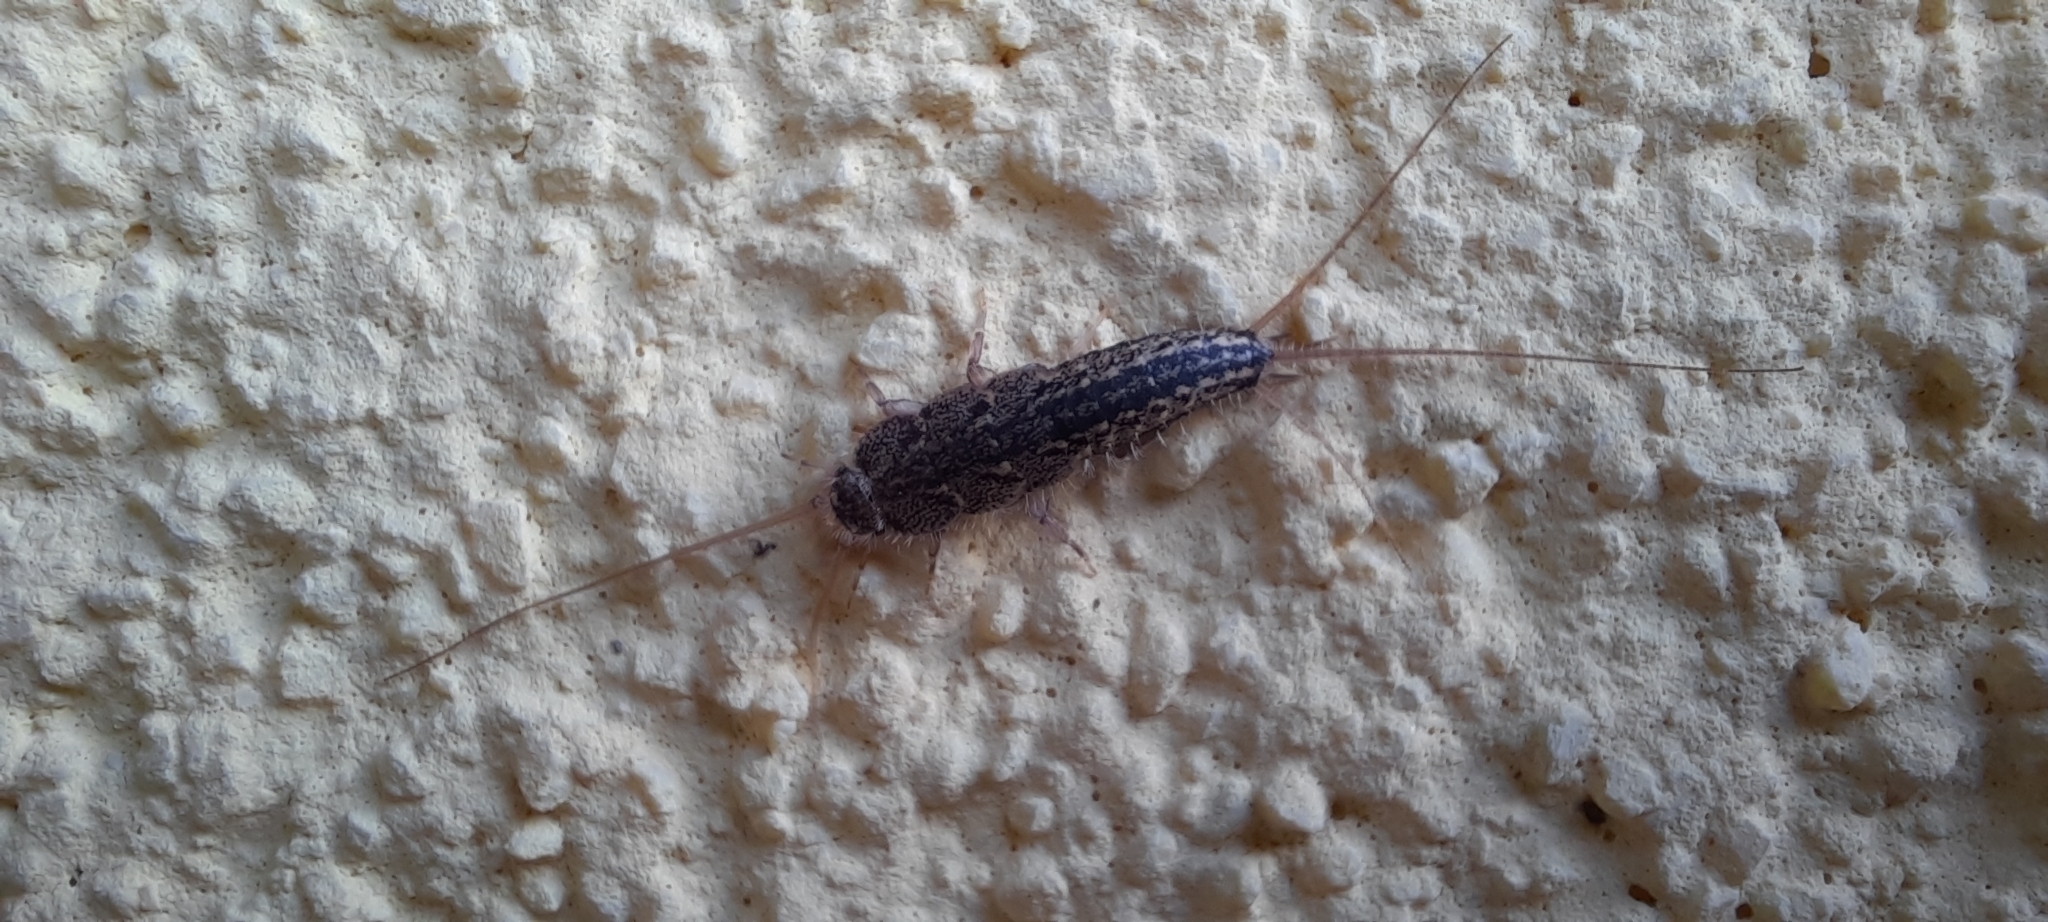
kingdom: Animalia
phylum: Arthropoda
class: Insecta
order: Zygentoma
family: Lepismatidae
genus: Ctenolepisma
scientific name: Ctenolepisma lineata
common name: Four-lined silverfish
